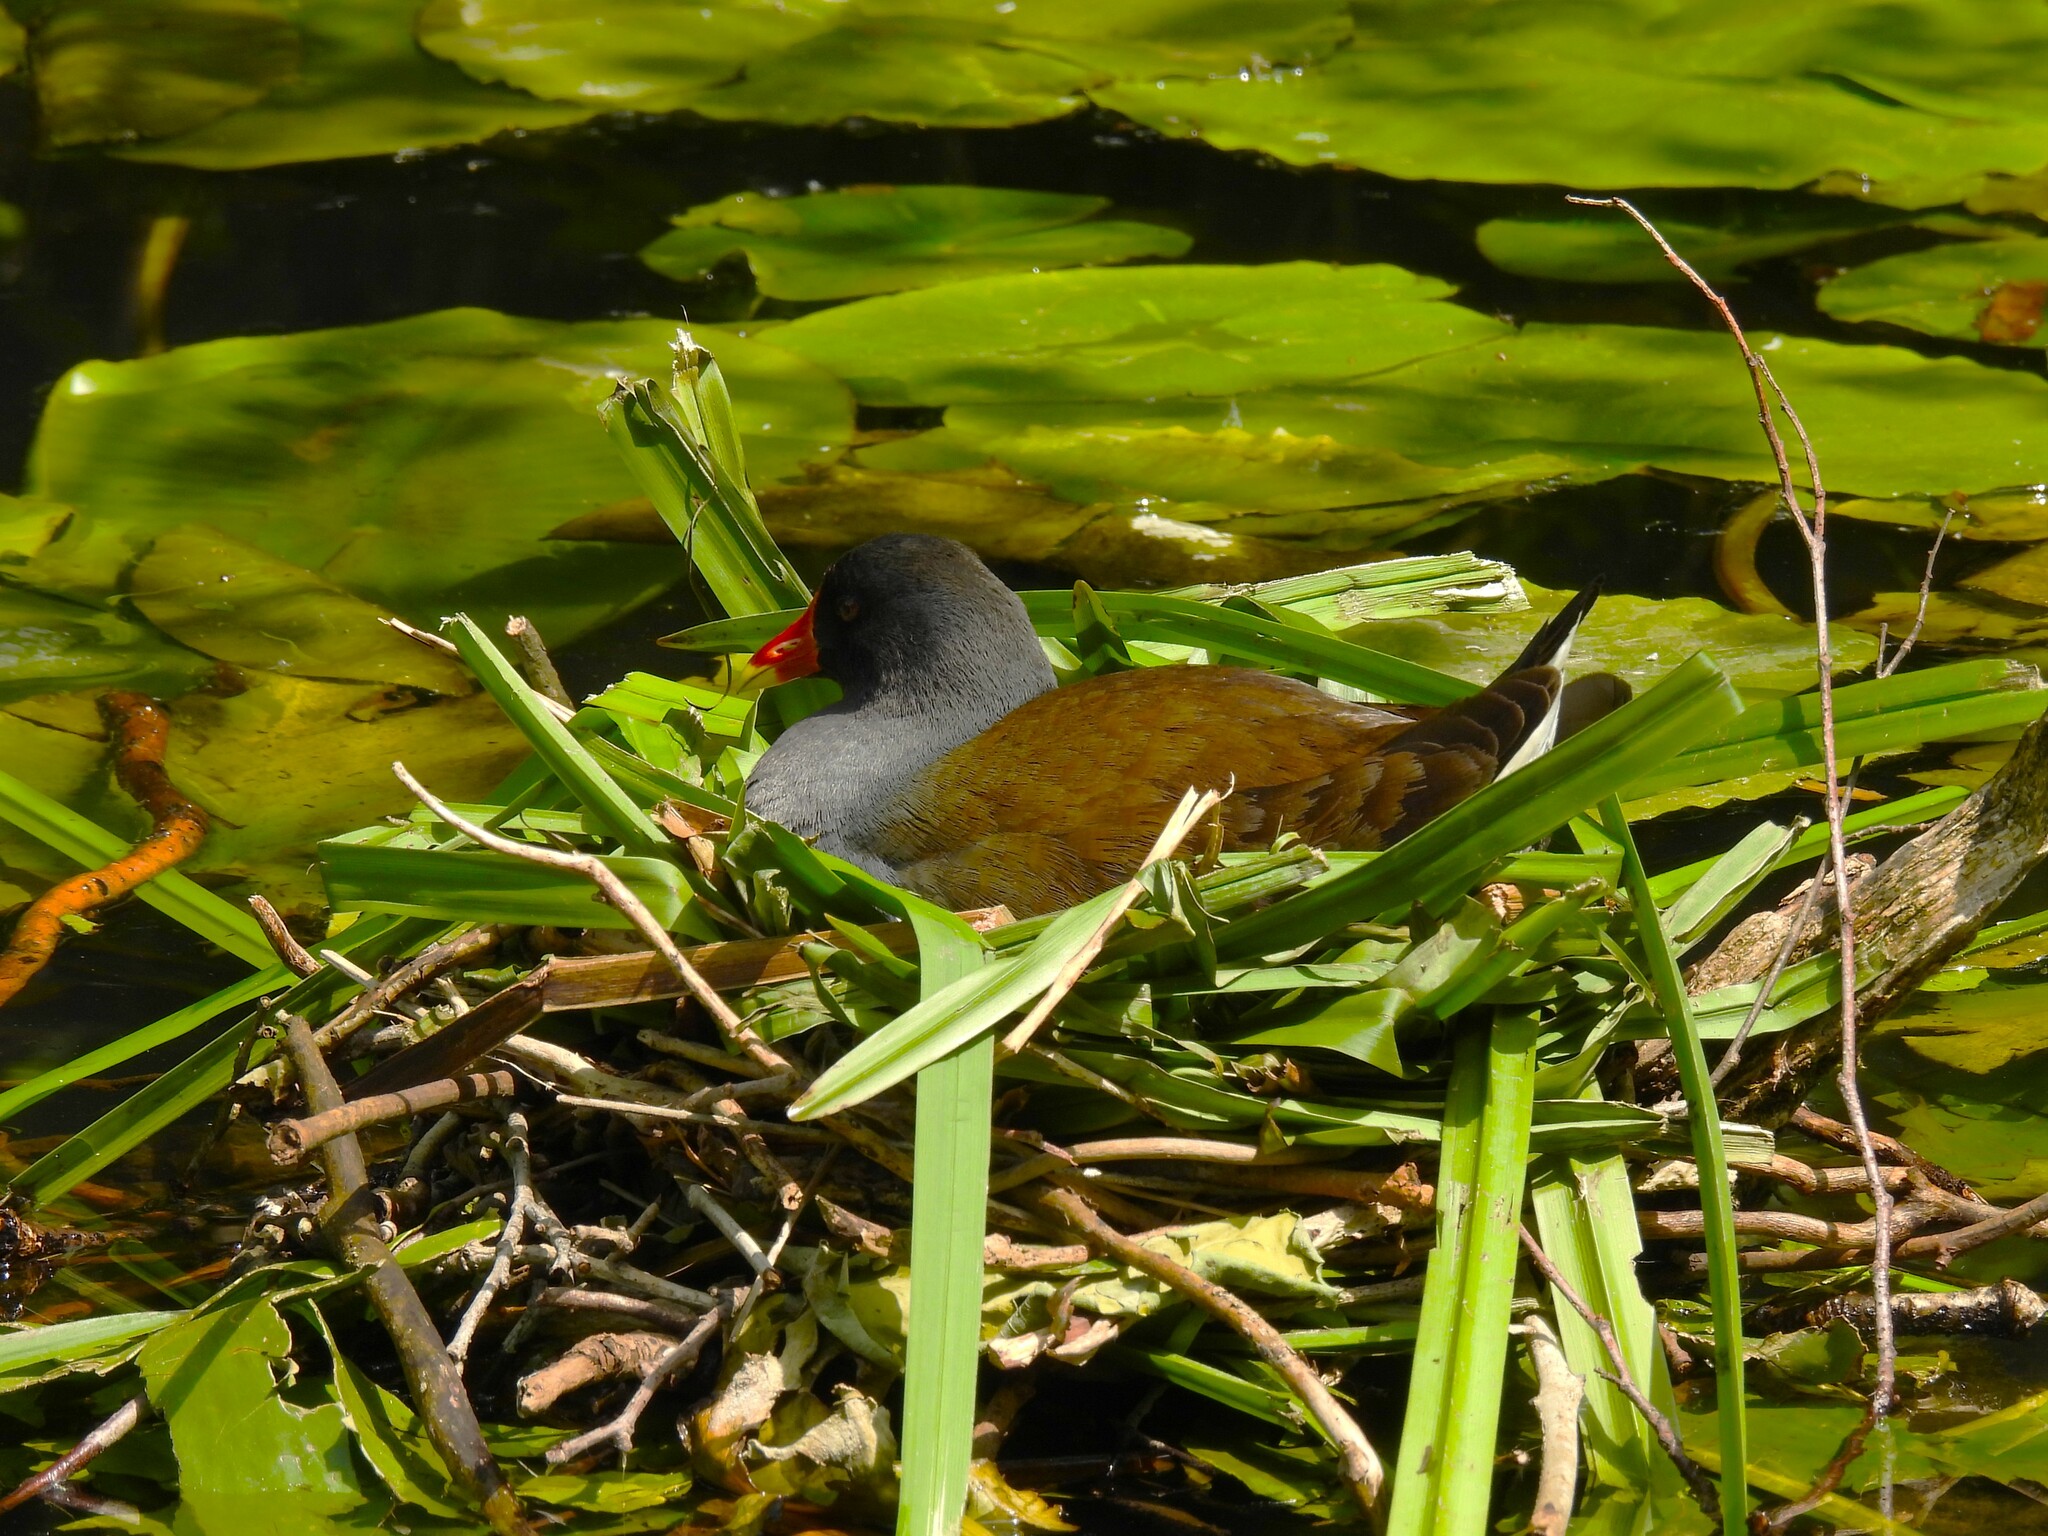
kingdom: Animalia
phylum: Chordata
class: Aves
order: Gruiformes
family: Rallidae
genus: Gallinula
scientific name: Gallinula chloropus
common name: Common moorhen
